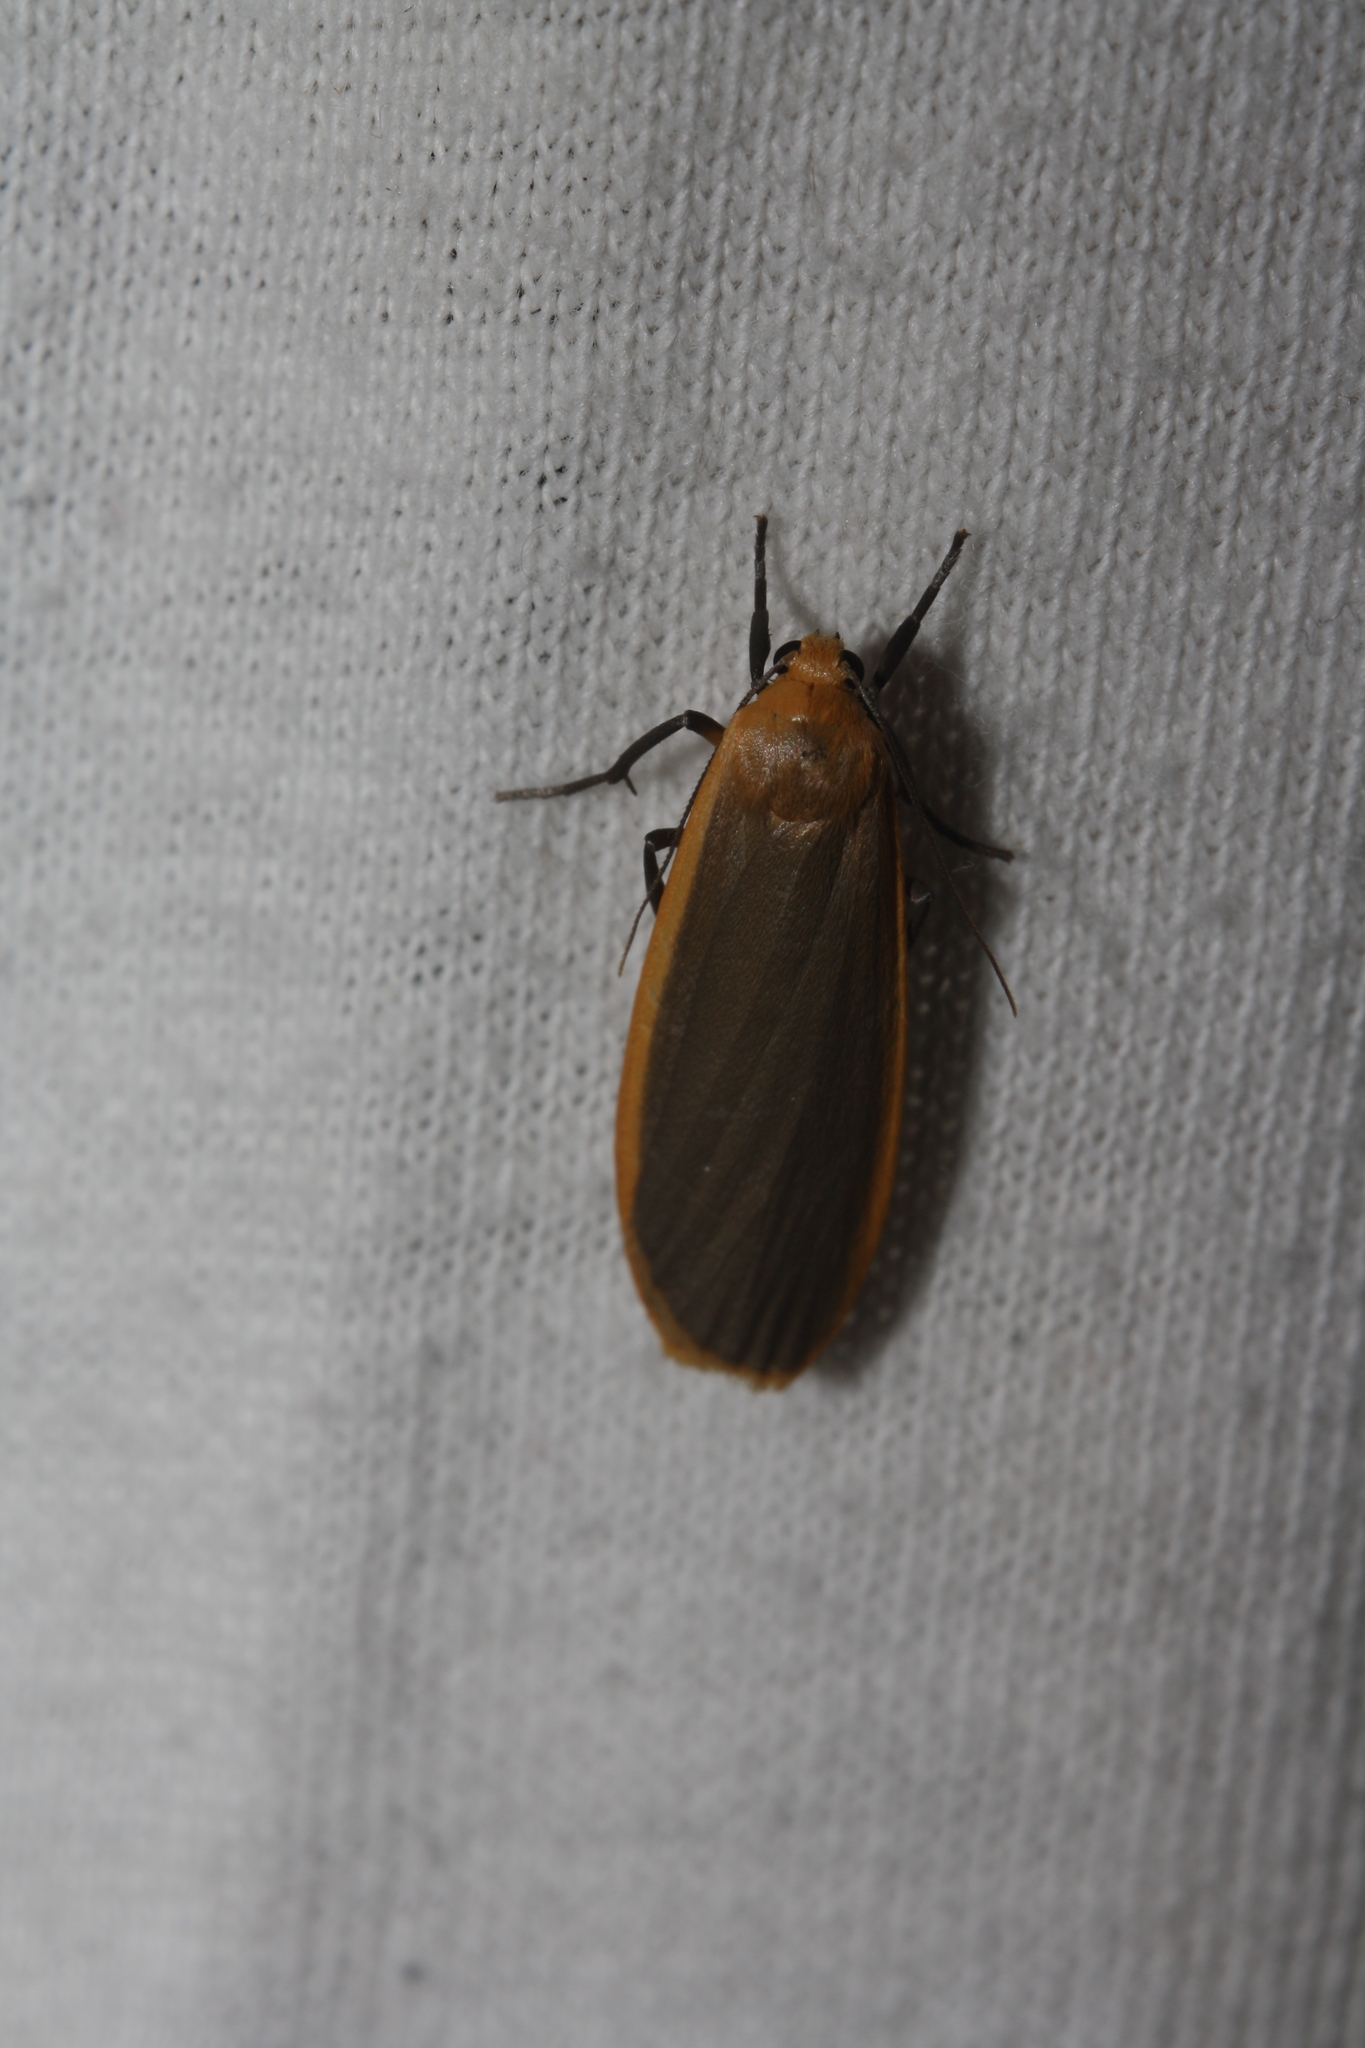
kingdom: Animalia
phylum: Arthropoda
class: Insecta
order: Lepidoptera
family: Erebidae
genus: Katha
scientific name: Katha depressa
